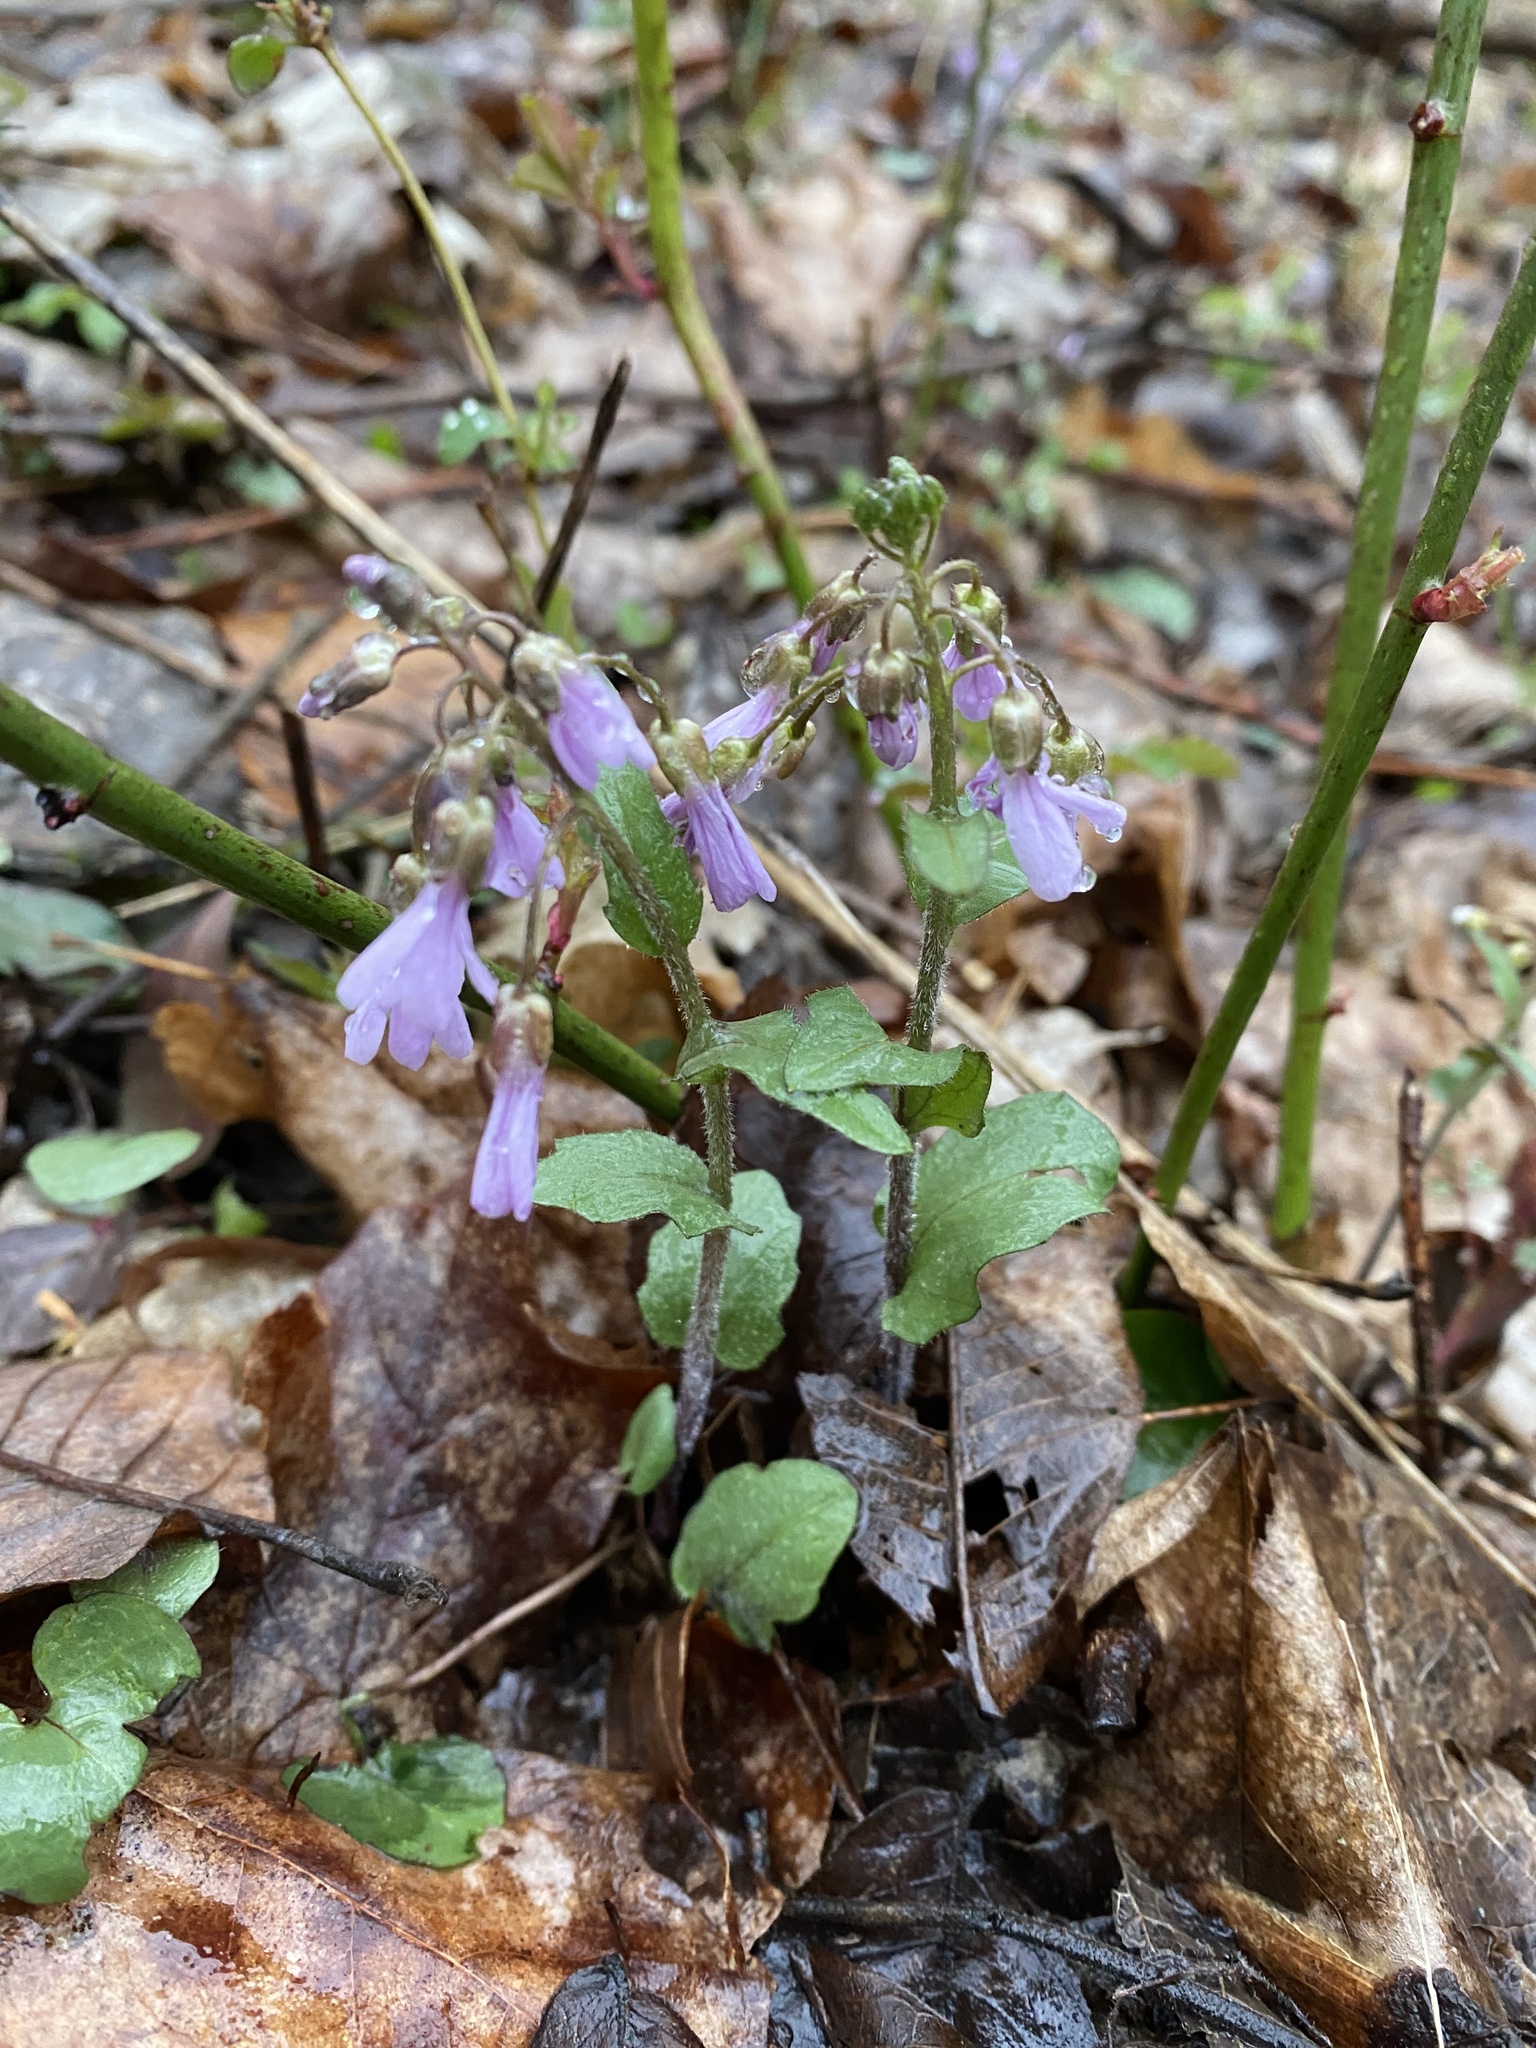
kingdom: Plantae
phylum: Tracheophyta
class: Magnoliopsida
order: Brassicales
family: Brassicaceae
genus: Cardamine
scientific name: Cardamine douglassii
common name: Purple cress
